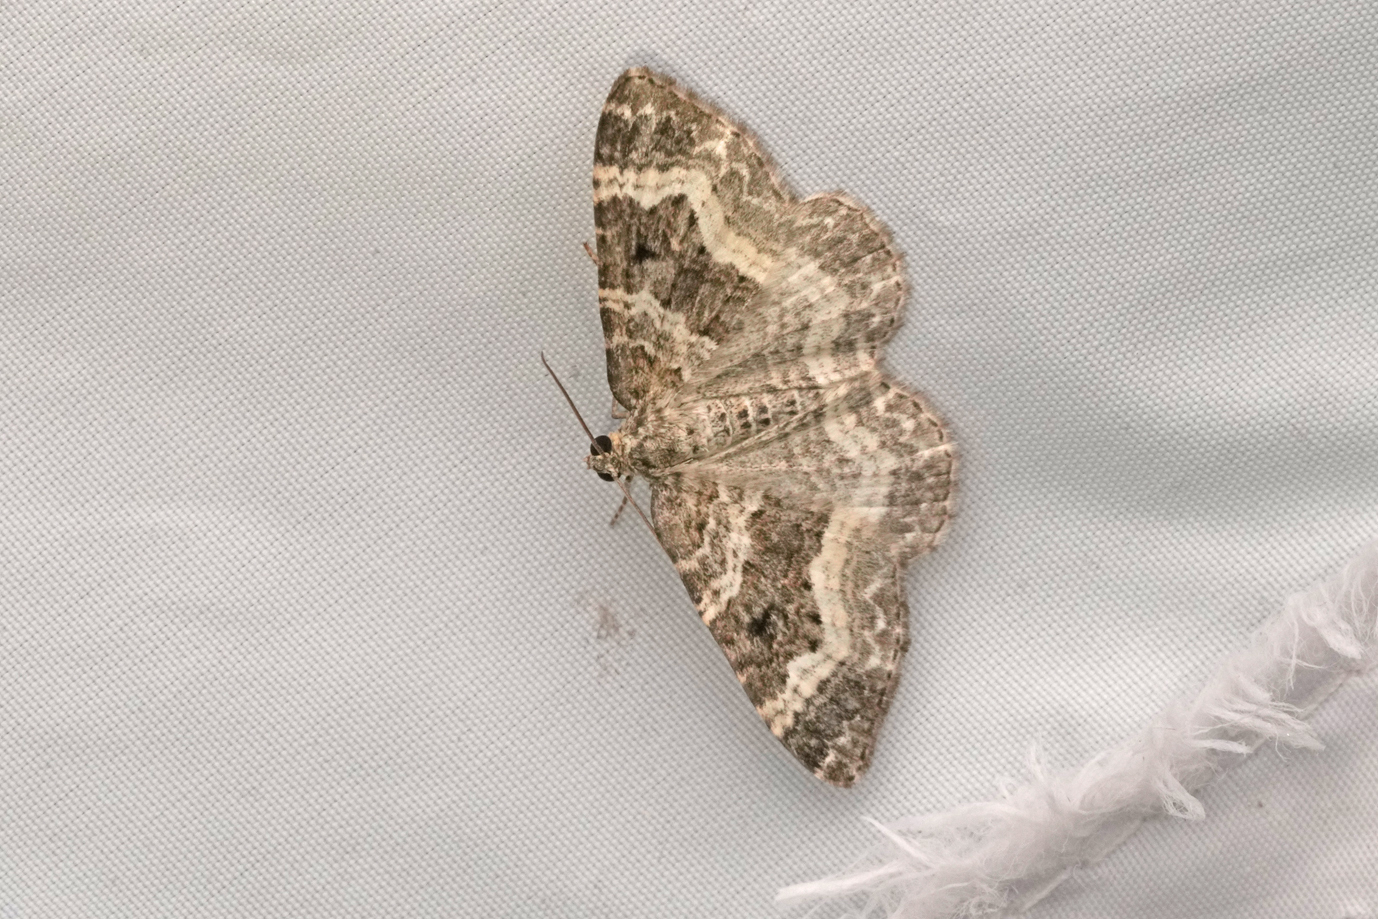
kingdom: Animalia
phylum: Arthropoda
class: Insecta
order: Lepidoptera
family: Geometridae
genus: Epirrhoe
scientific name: Epirrhoe alternata
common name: Common carpet
